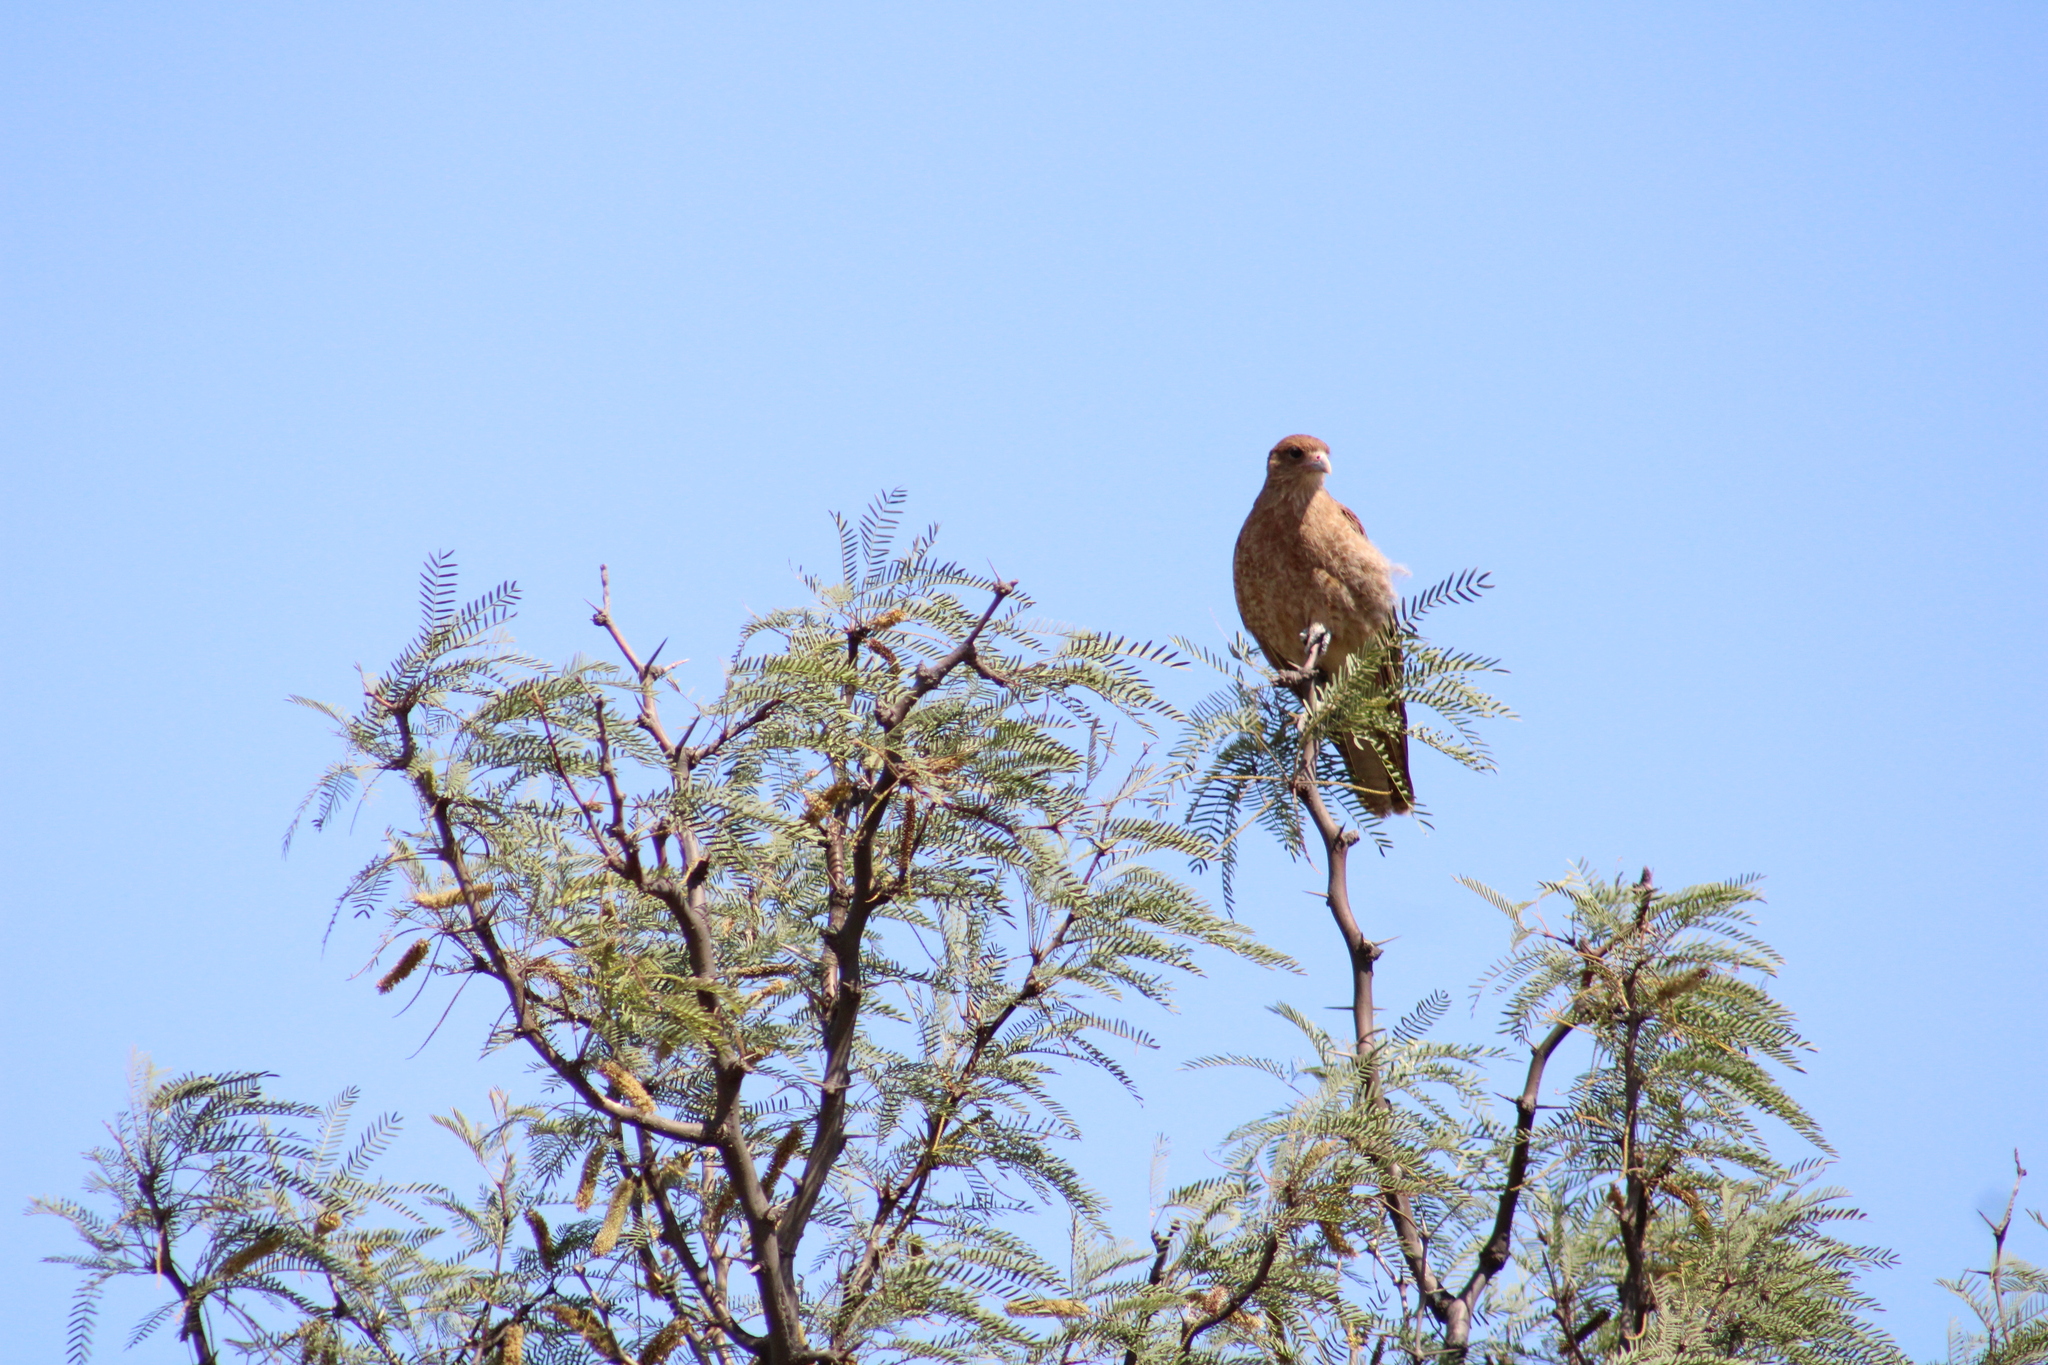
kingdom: Animalia
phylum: Chordata
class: Aves
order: Falconiformes
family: Falconidae
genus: Daptrius
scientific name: Daptrius
